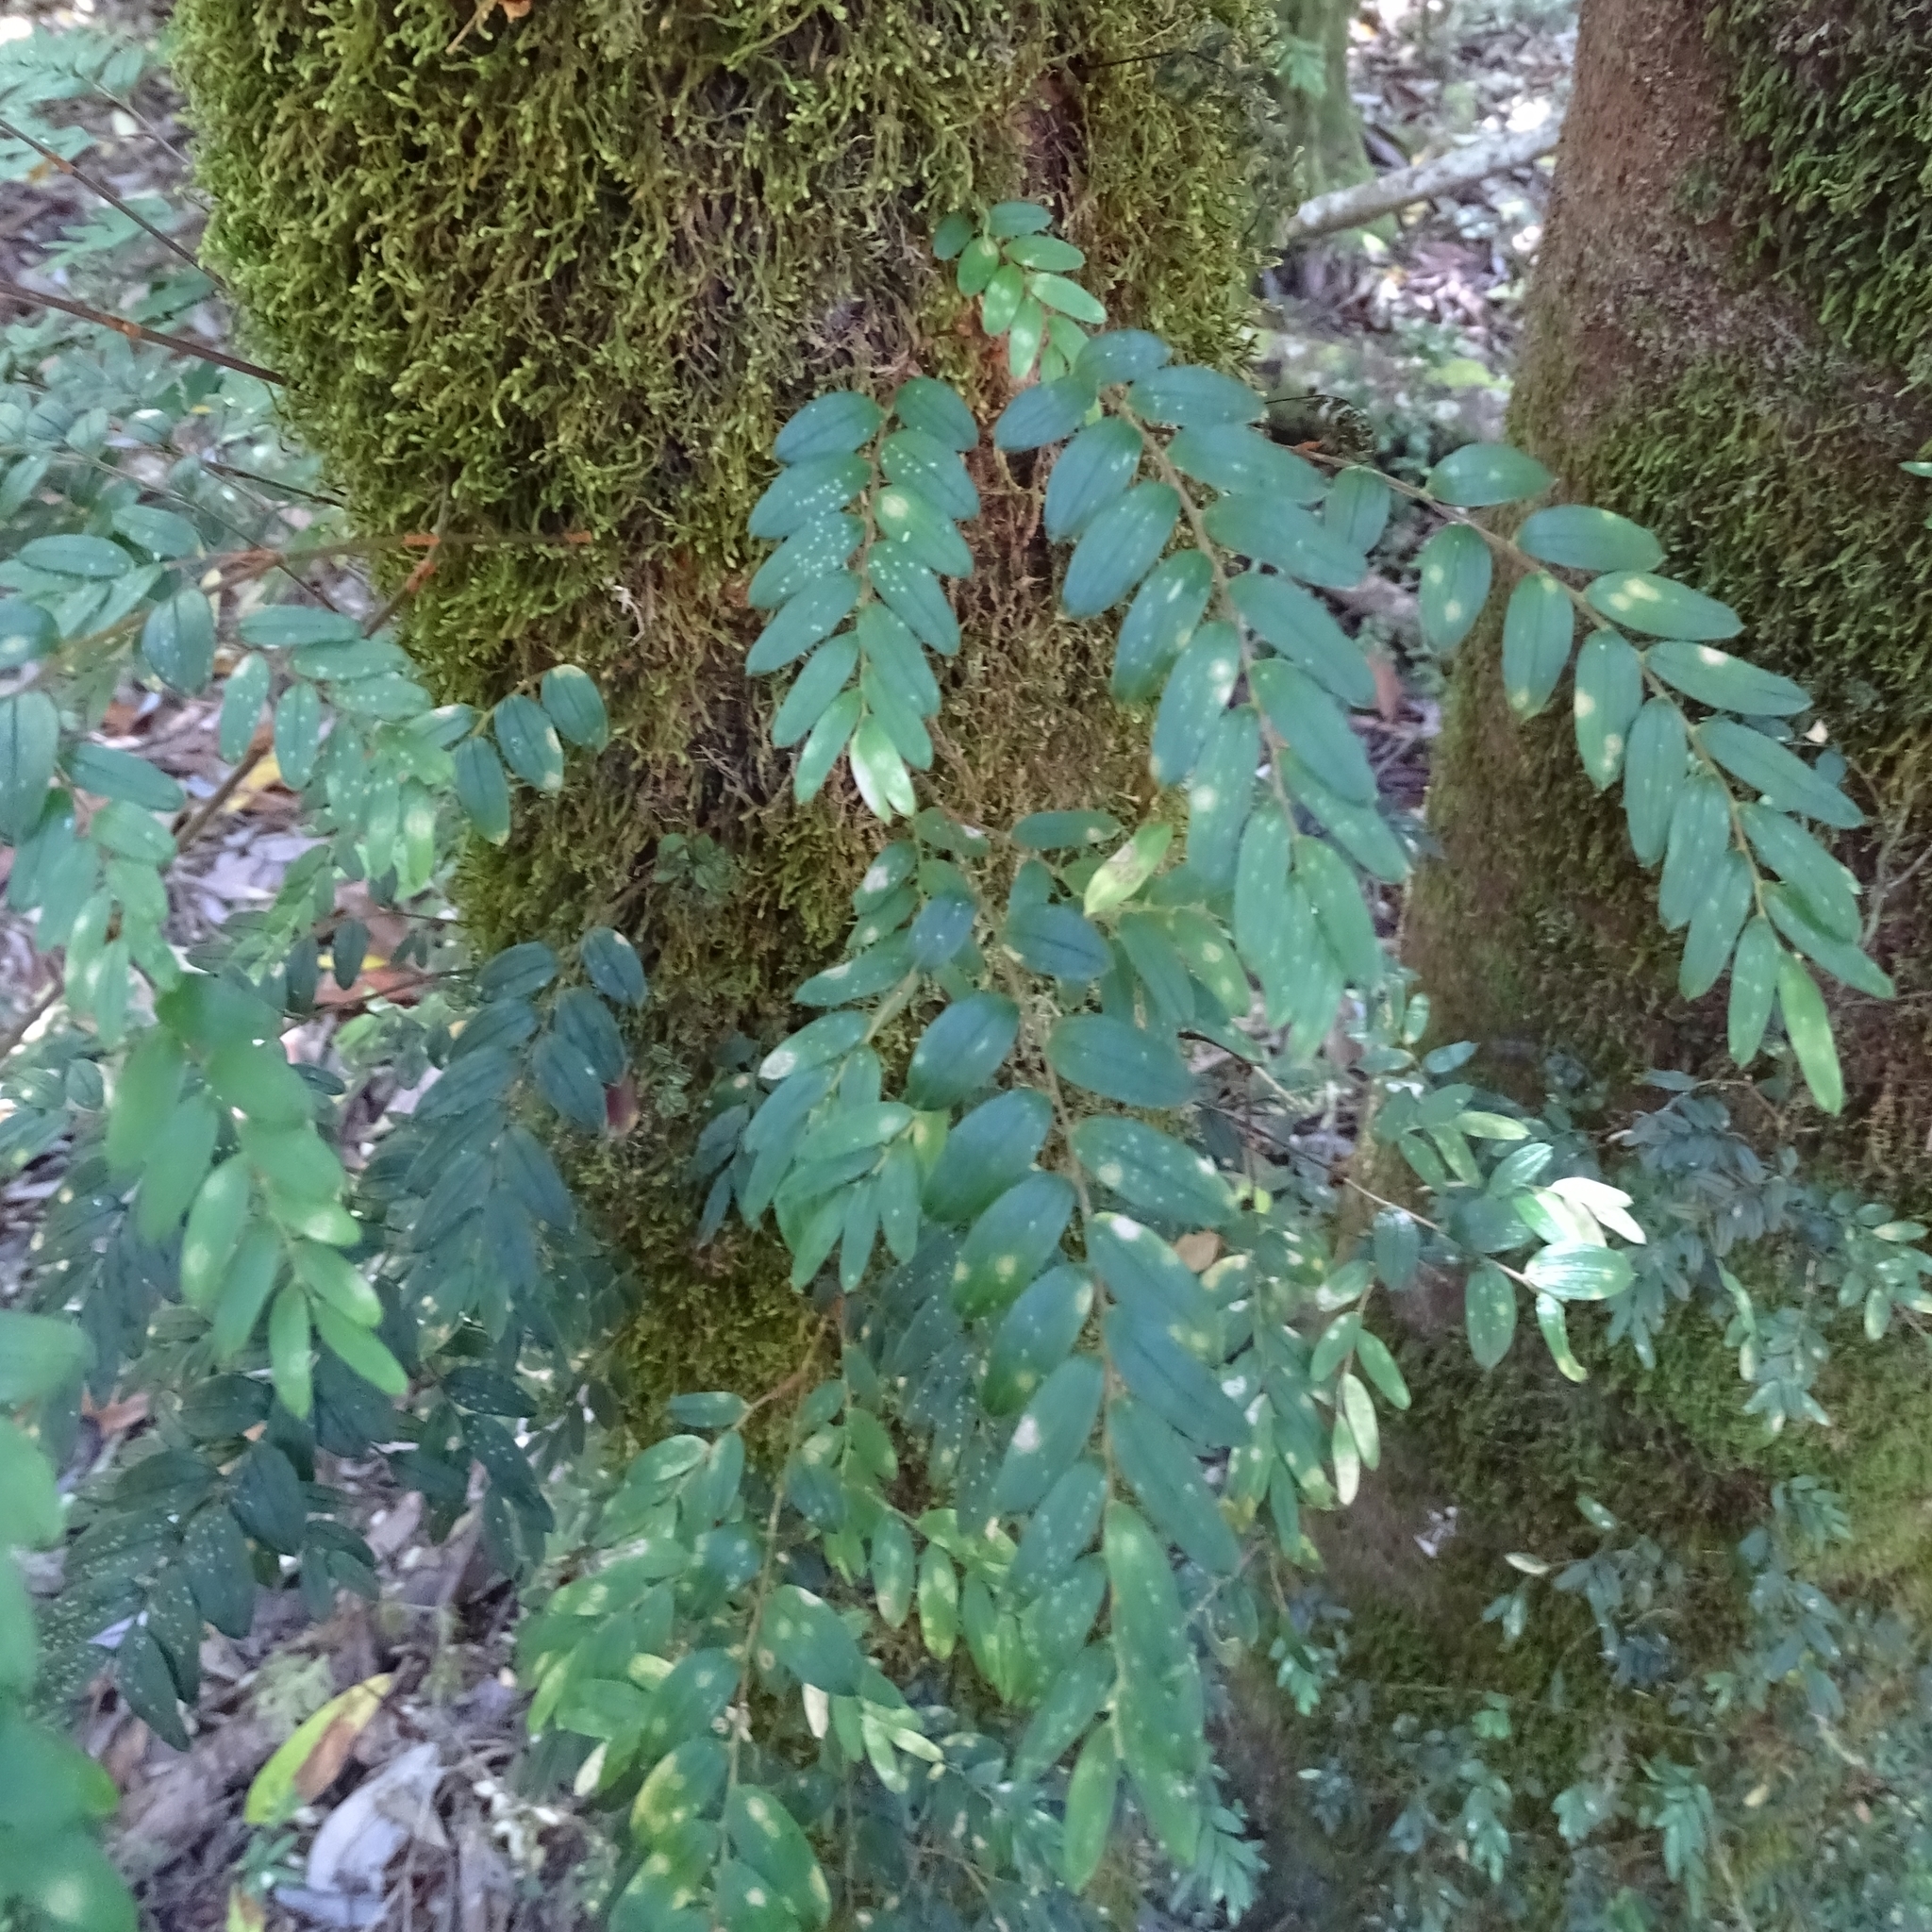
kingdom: Plantae
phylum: Tracheophyta
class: Liliopsida
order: Liliales
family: Alstroemeriaceae
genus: Luzuriaga
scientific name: Luzuriaga polyphylla
